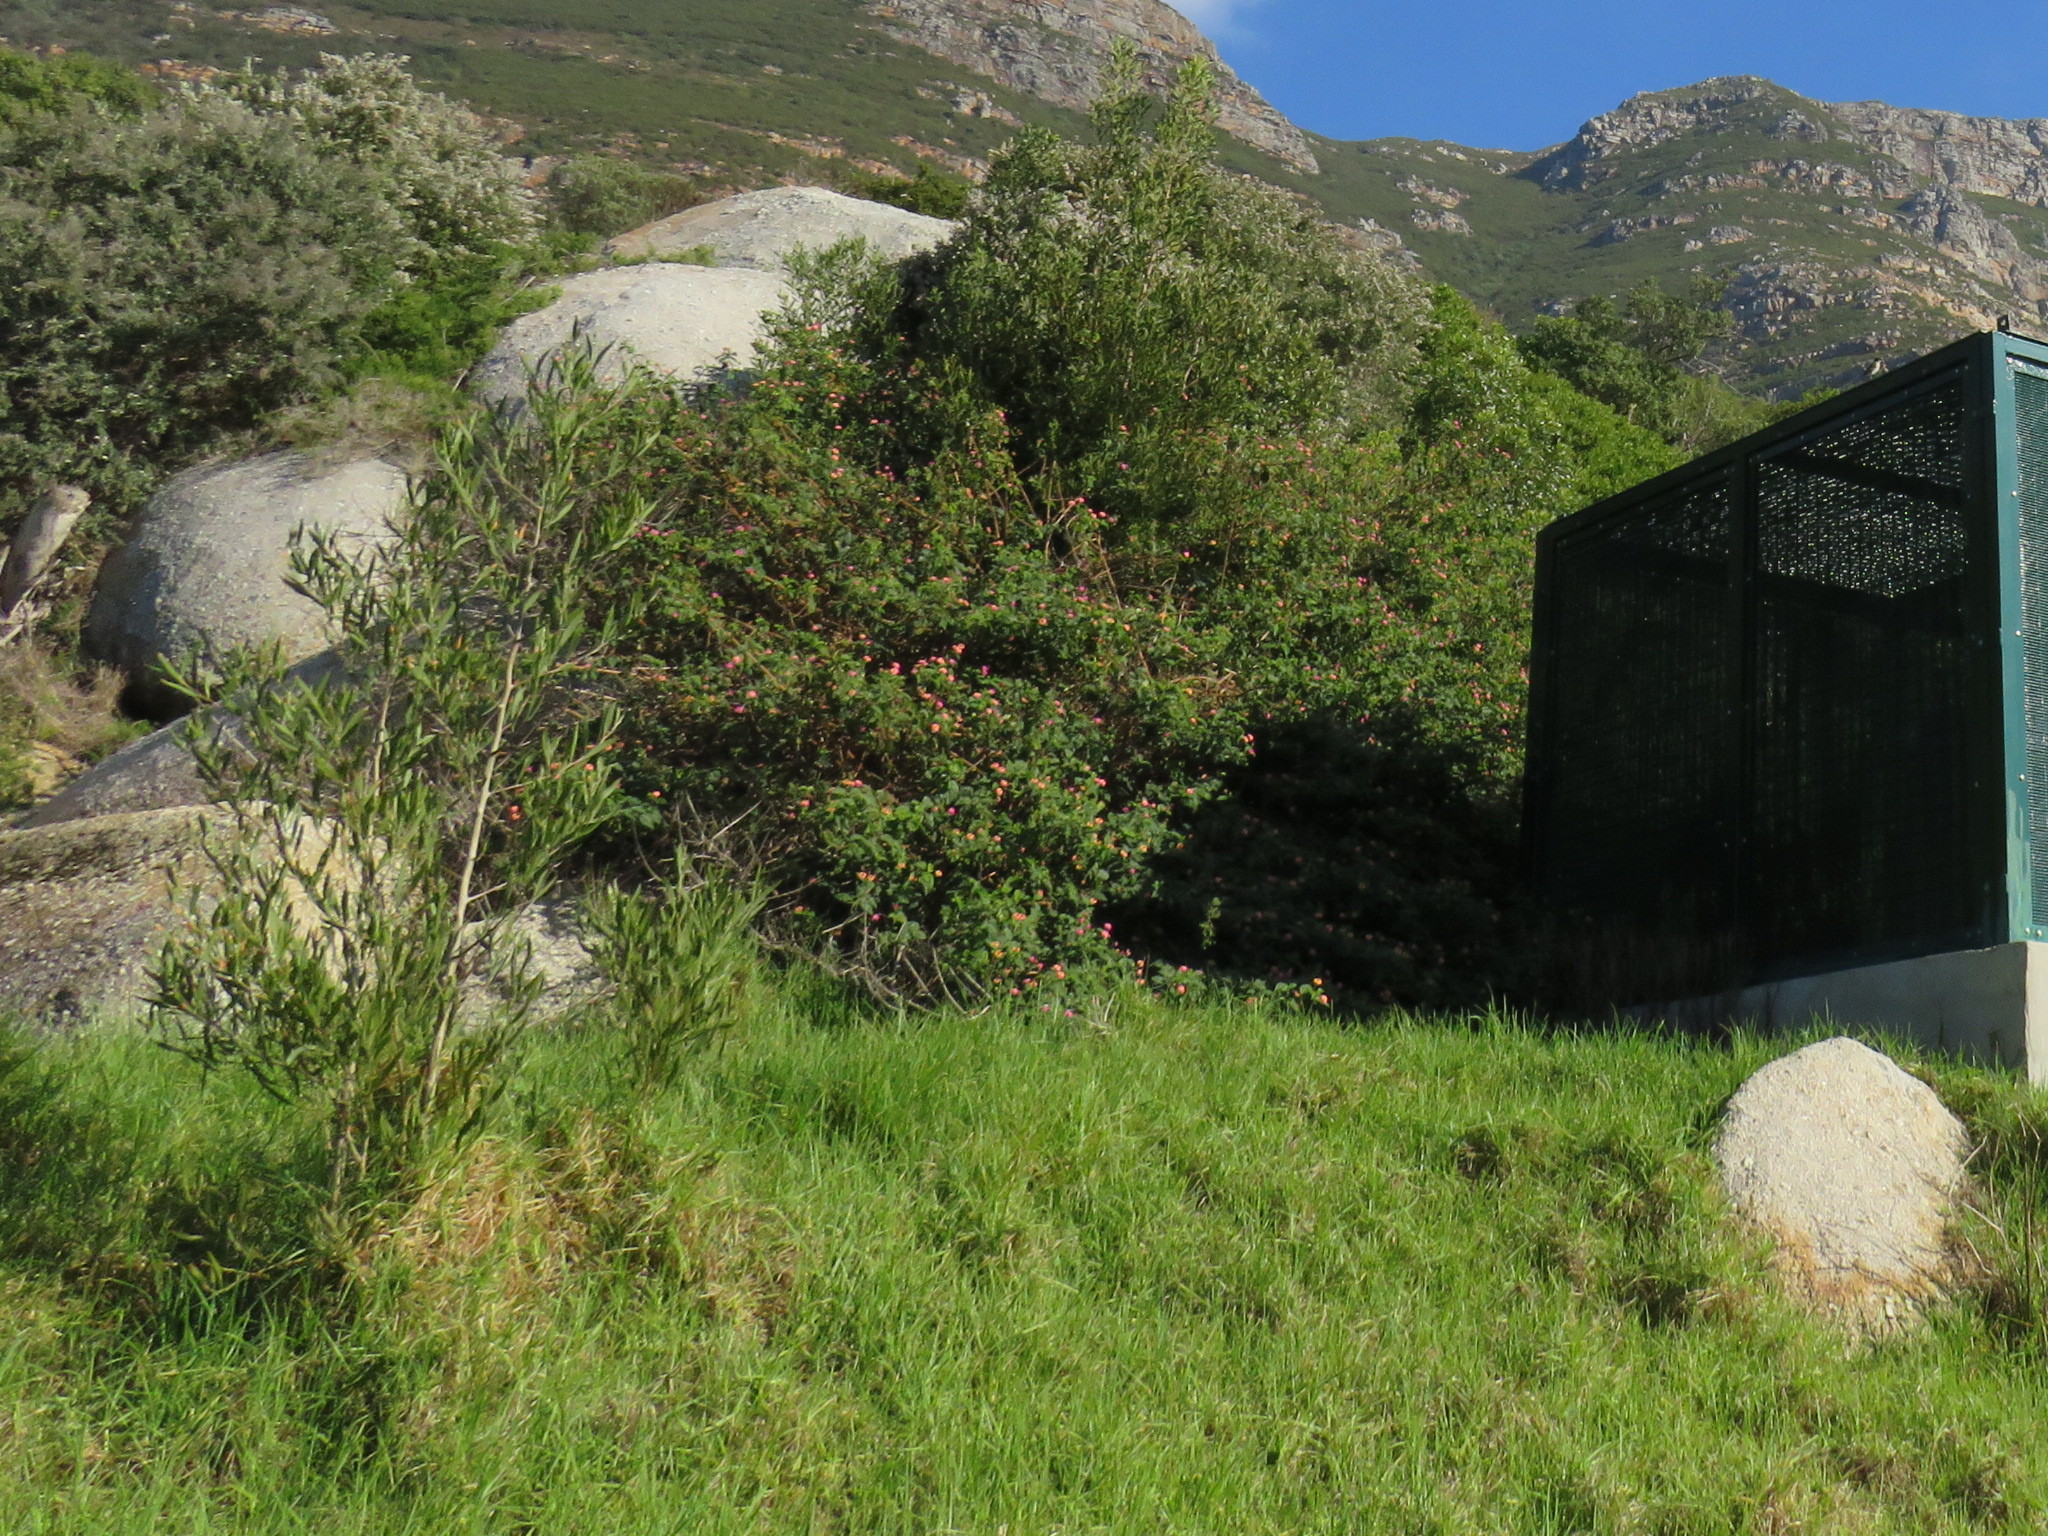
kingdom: Plantae
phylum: Tracheophyta
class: Magnoliopsida
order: Lamiales
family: Verbenaceae
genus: Lantana
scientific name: Lantana camara
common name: Lantana
